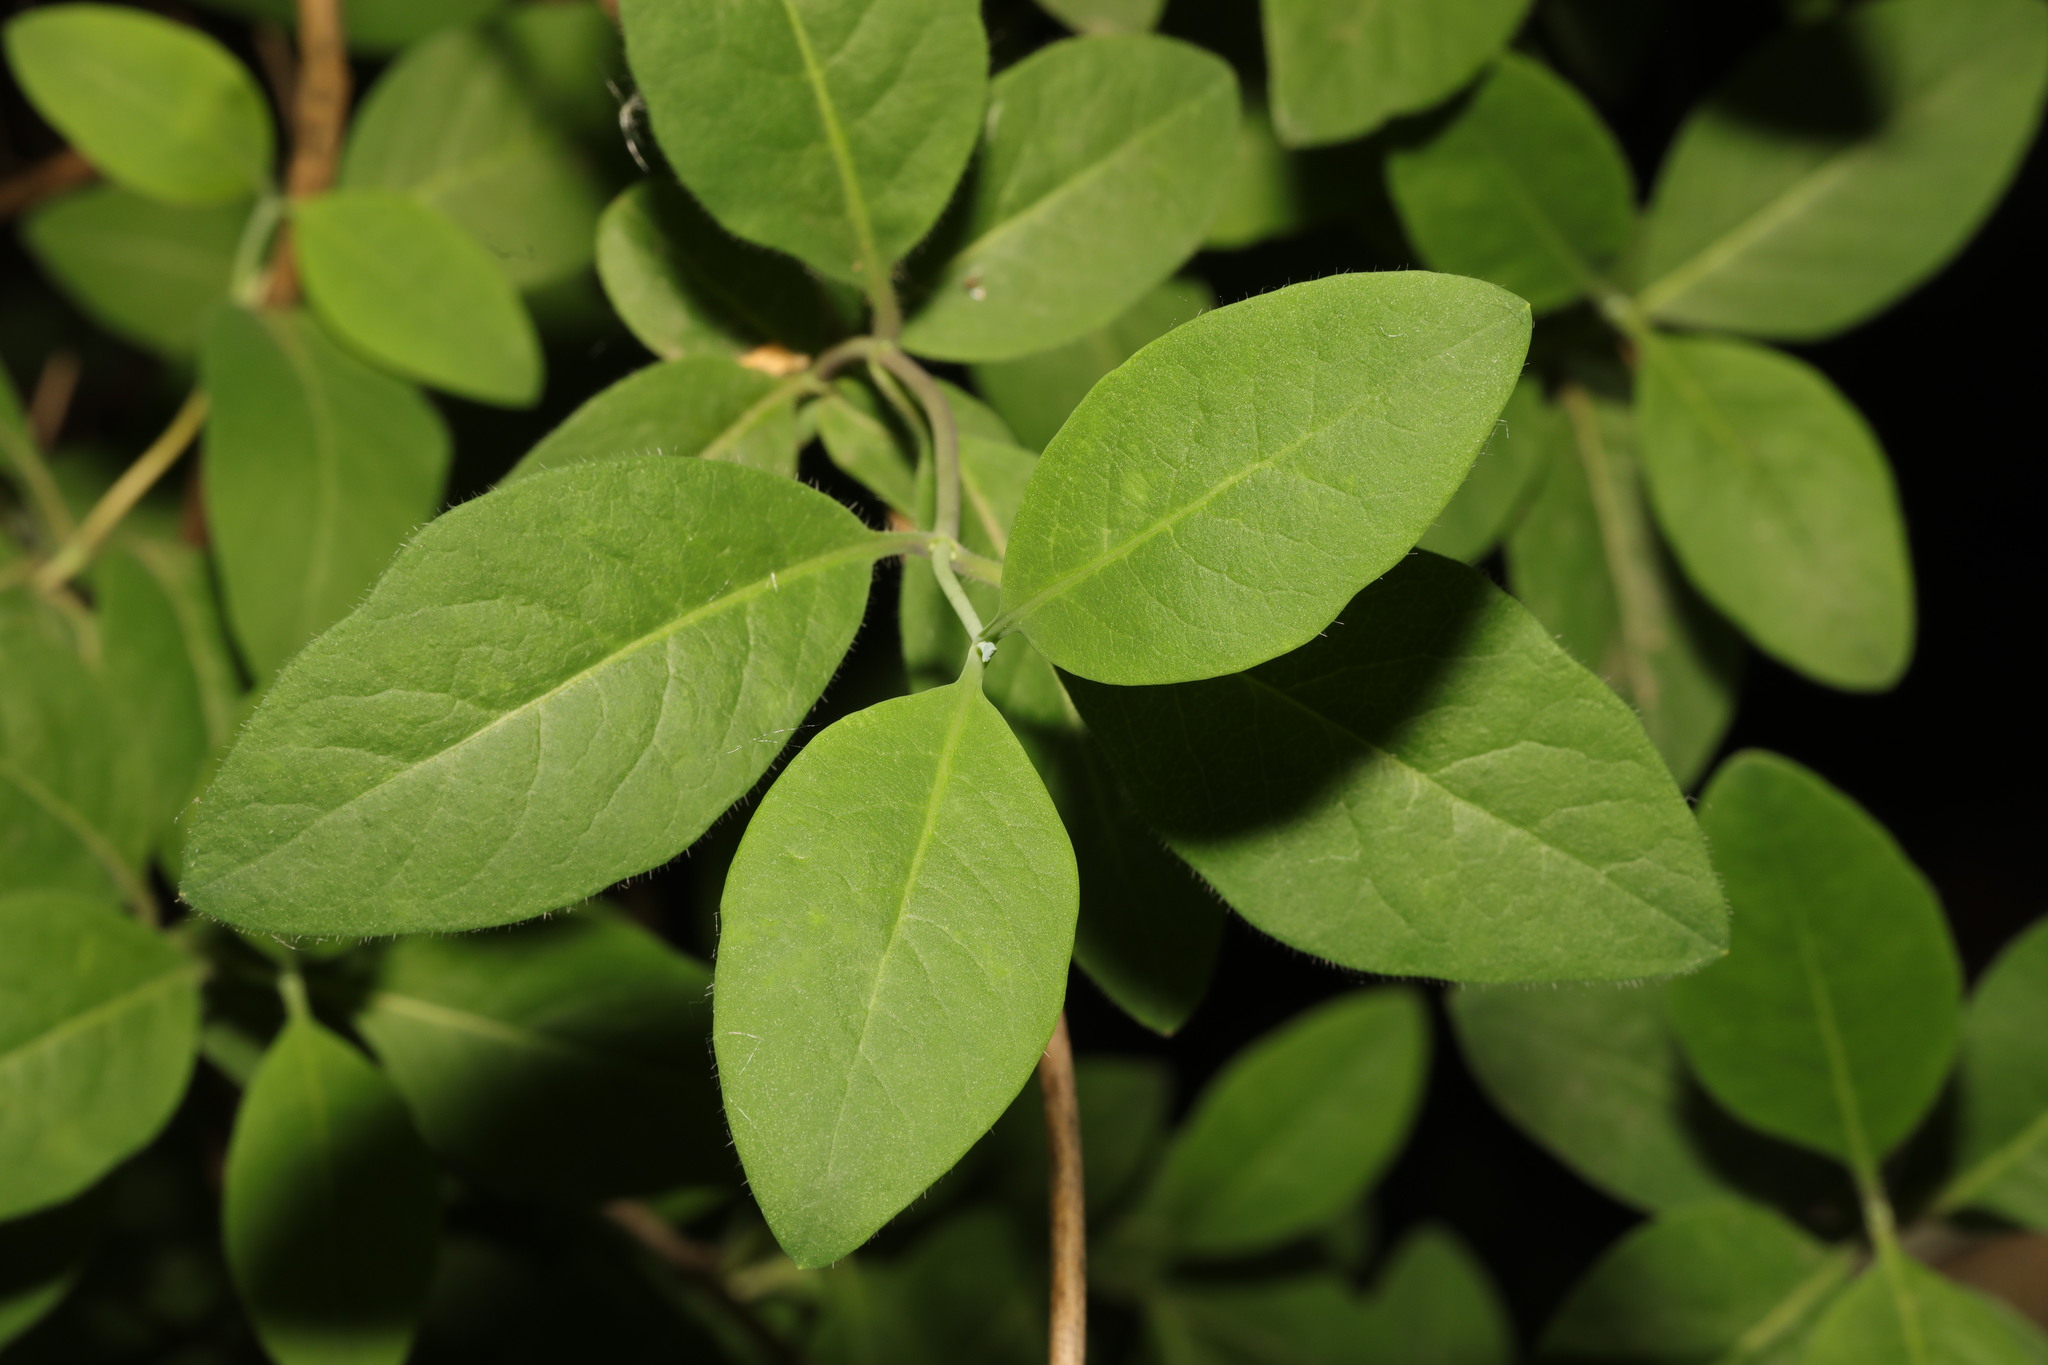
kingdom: Plantae
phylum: Tracheophyta
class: Magnoliopsida
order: Dipsacales
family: Caprifoliaceae
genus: Lonicera
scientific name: Lonicera periclymenum
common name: European honeysuckle
